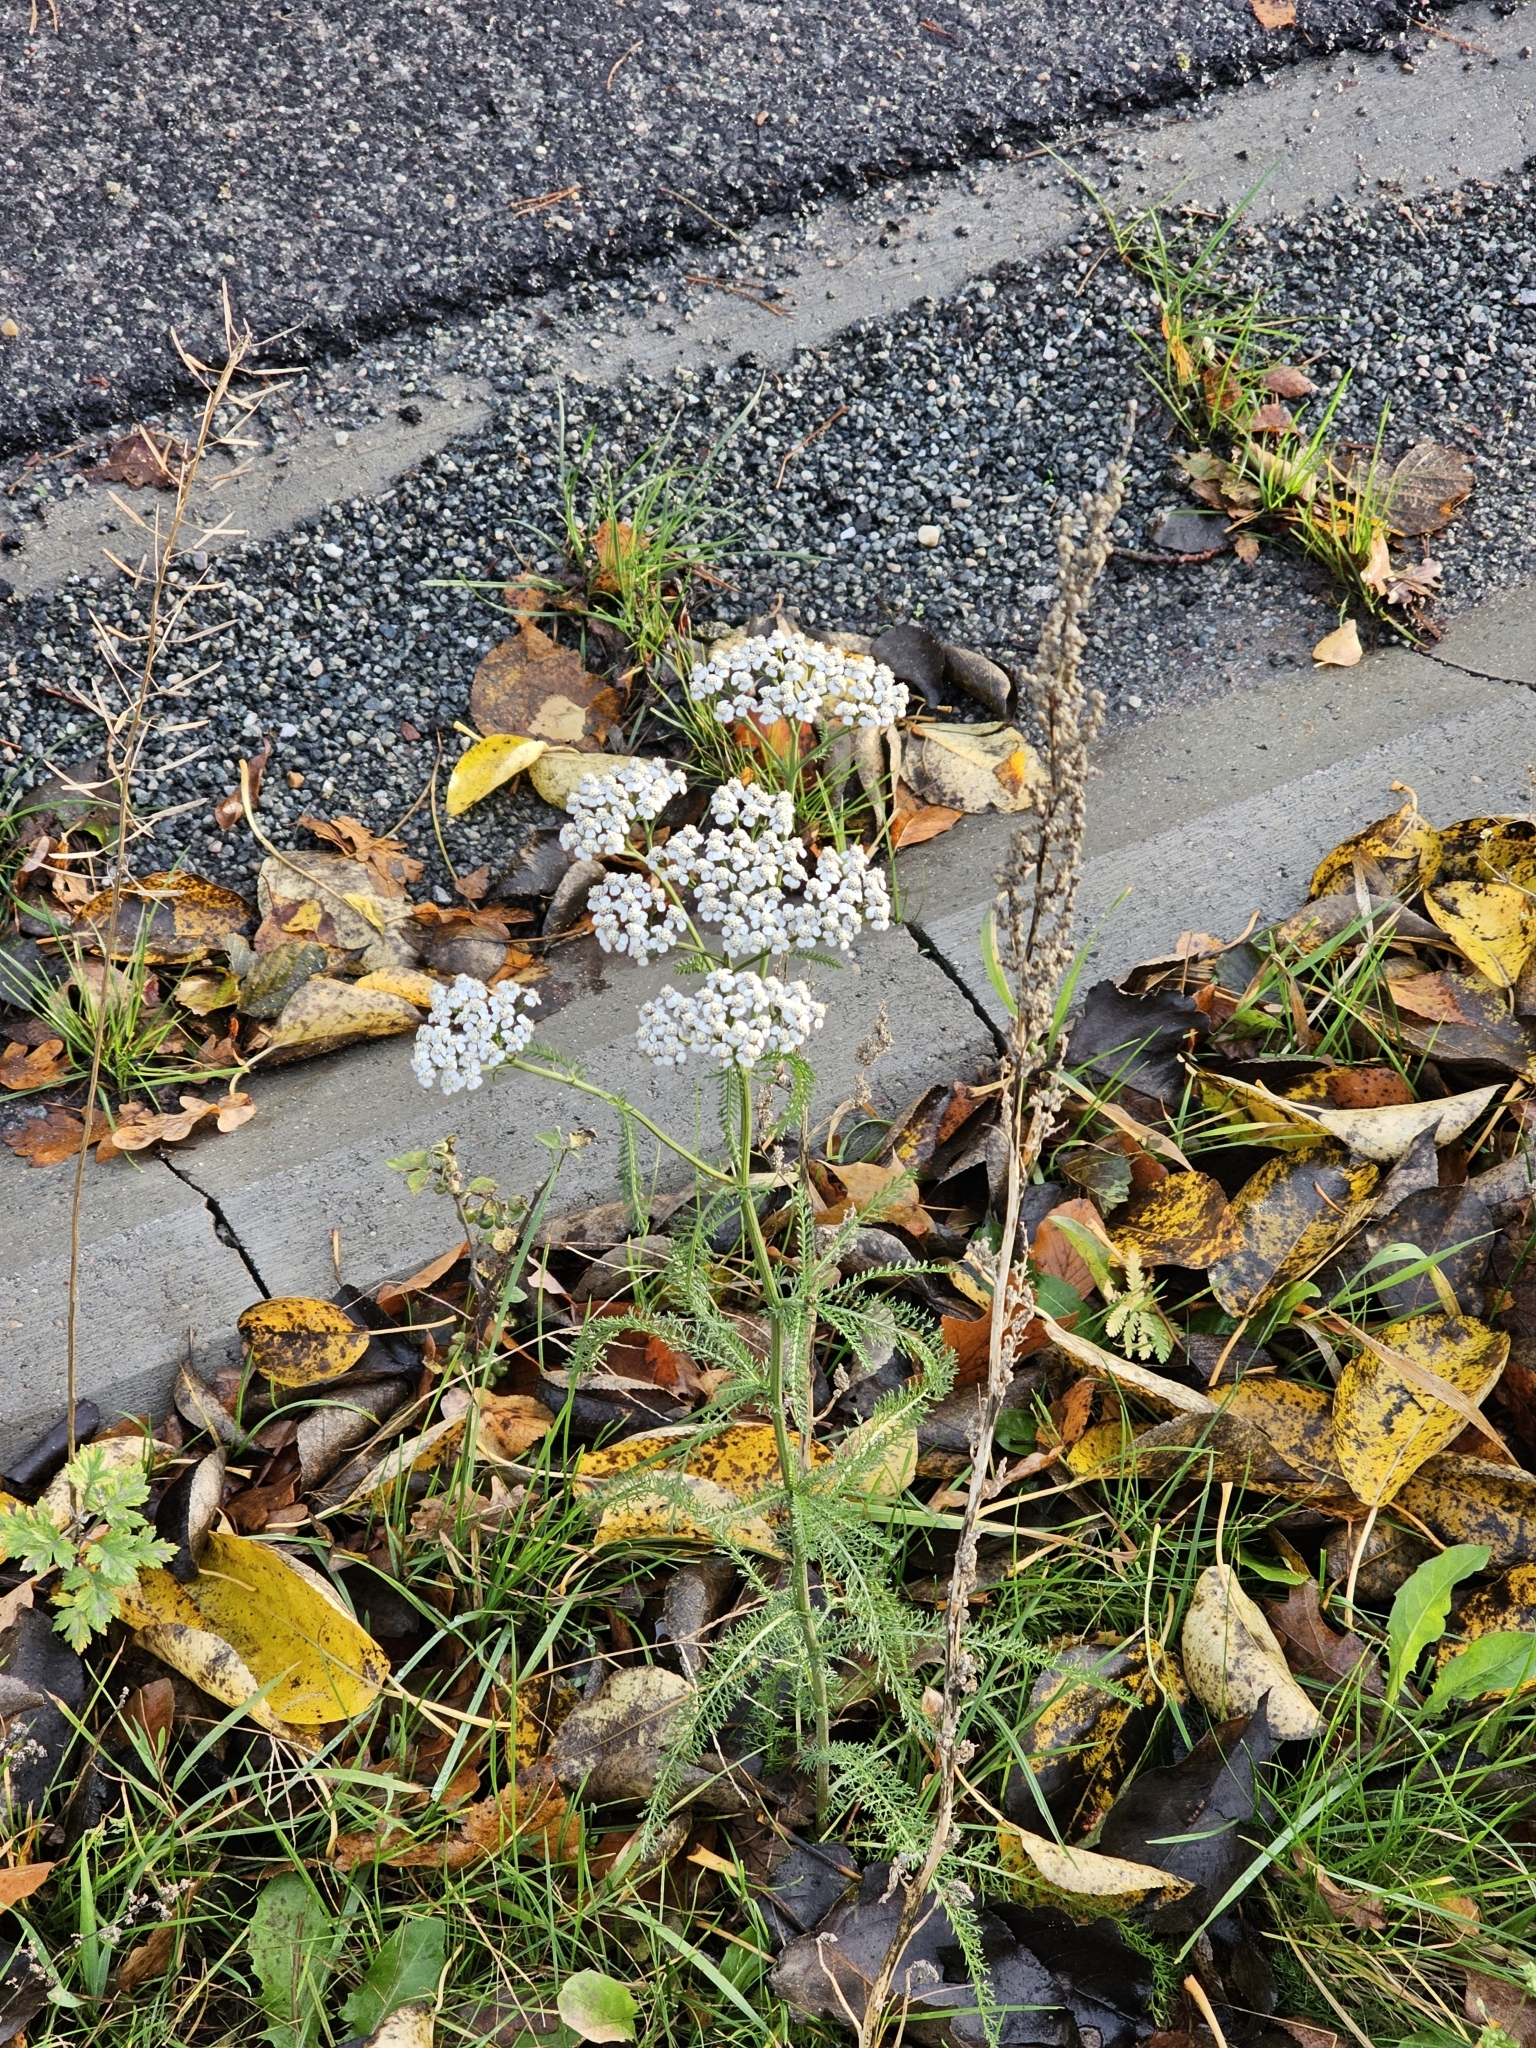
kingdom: Plantae
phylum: Tracheophyta
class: Magnoliopsida
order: Asterales
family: Asteraceae
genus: Achillea
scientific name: Achillea millefolium
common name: Yarrow
